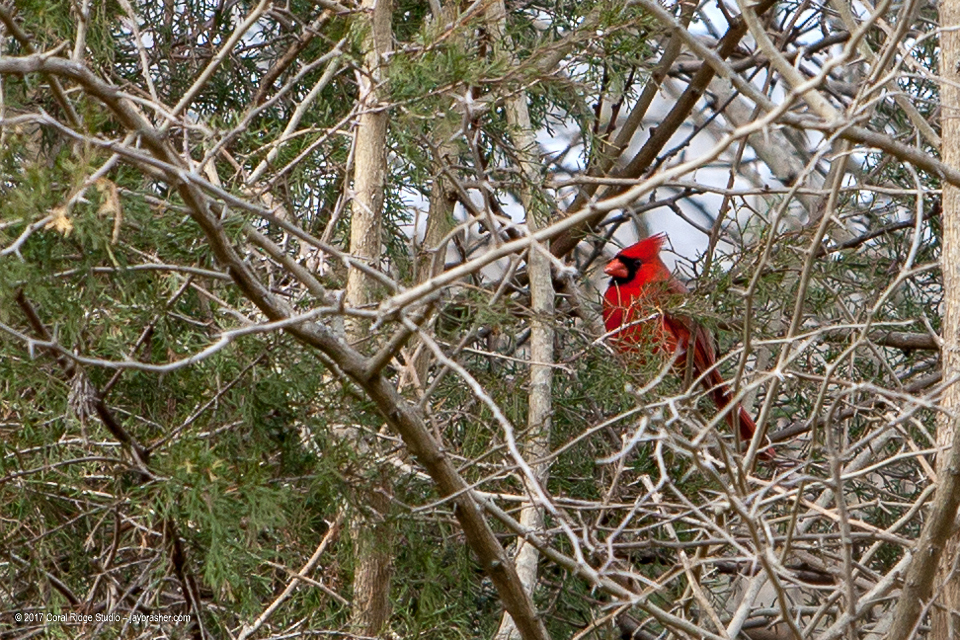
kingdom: Animalia
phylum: Chordata
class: Aves
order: Passeriformes
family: Cardinalidae
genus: Cardinalis
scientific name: Cardinalis cardinalis
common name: Northern cardinal
